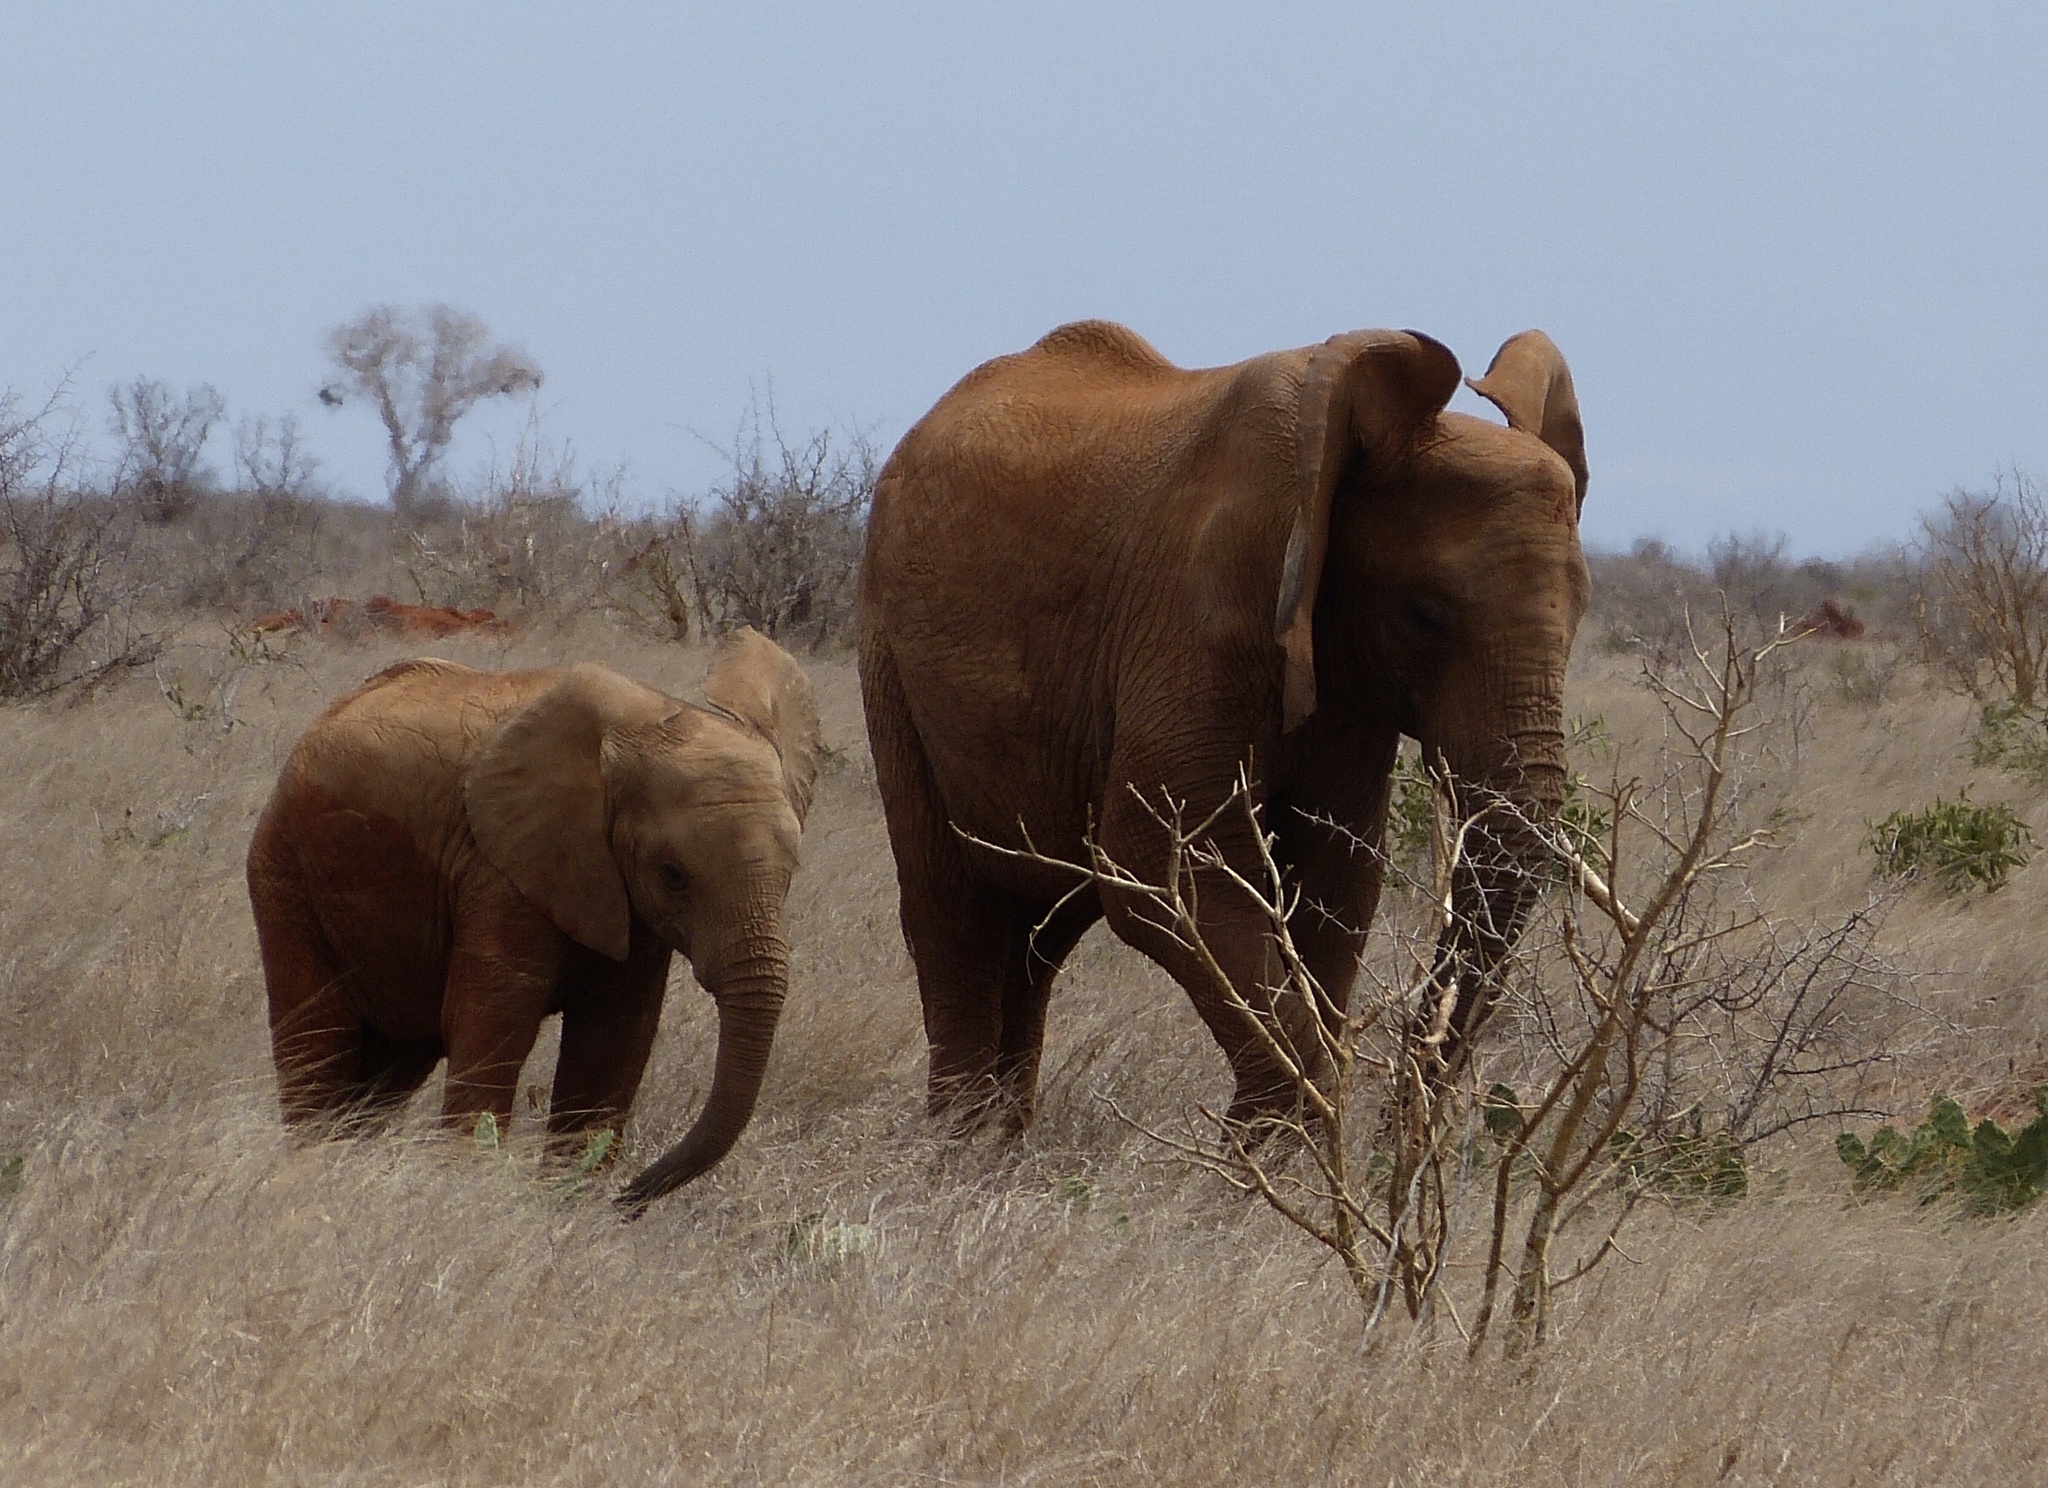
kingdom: Animalia
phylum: Chordata
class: Mammalia
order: Proboscidea
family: Elephantidae
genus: Loxodonta
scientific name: Loxodonta africana
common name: African elephant
